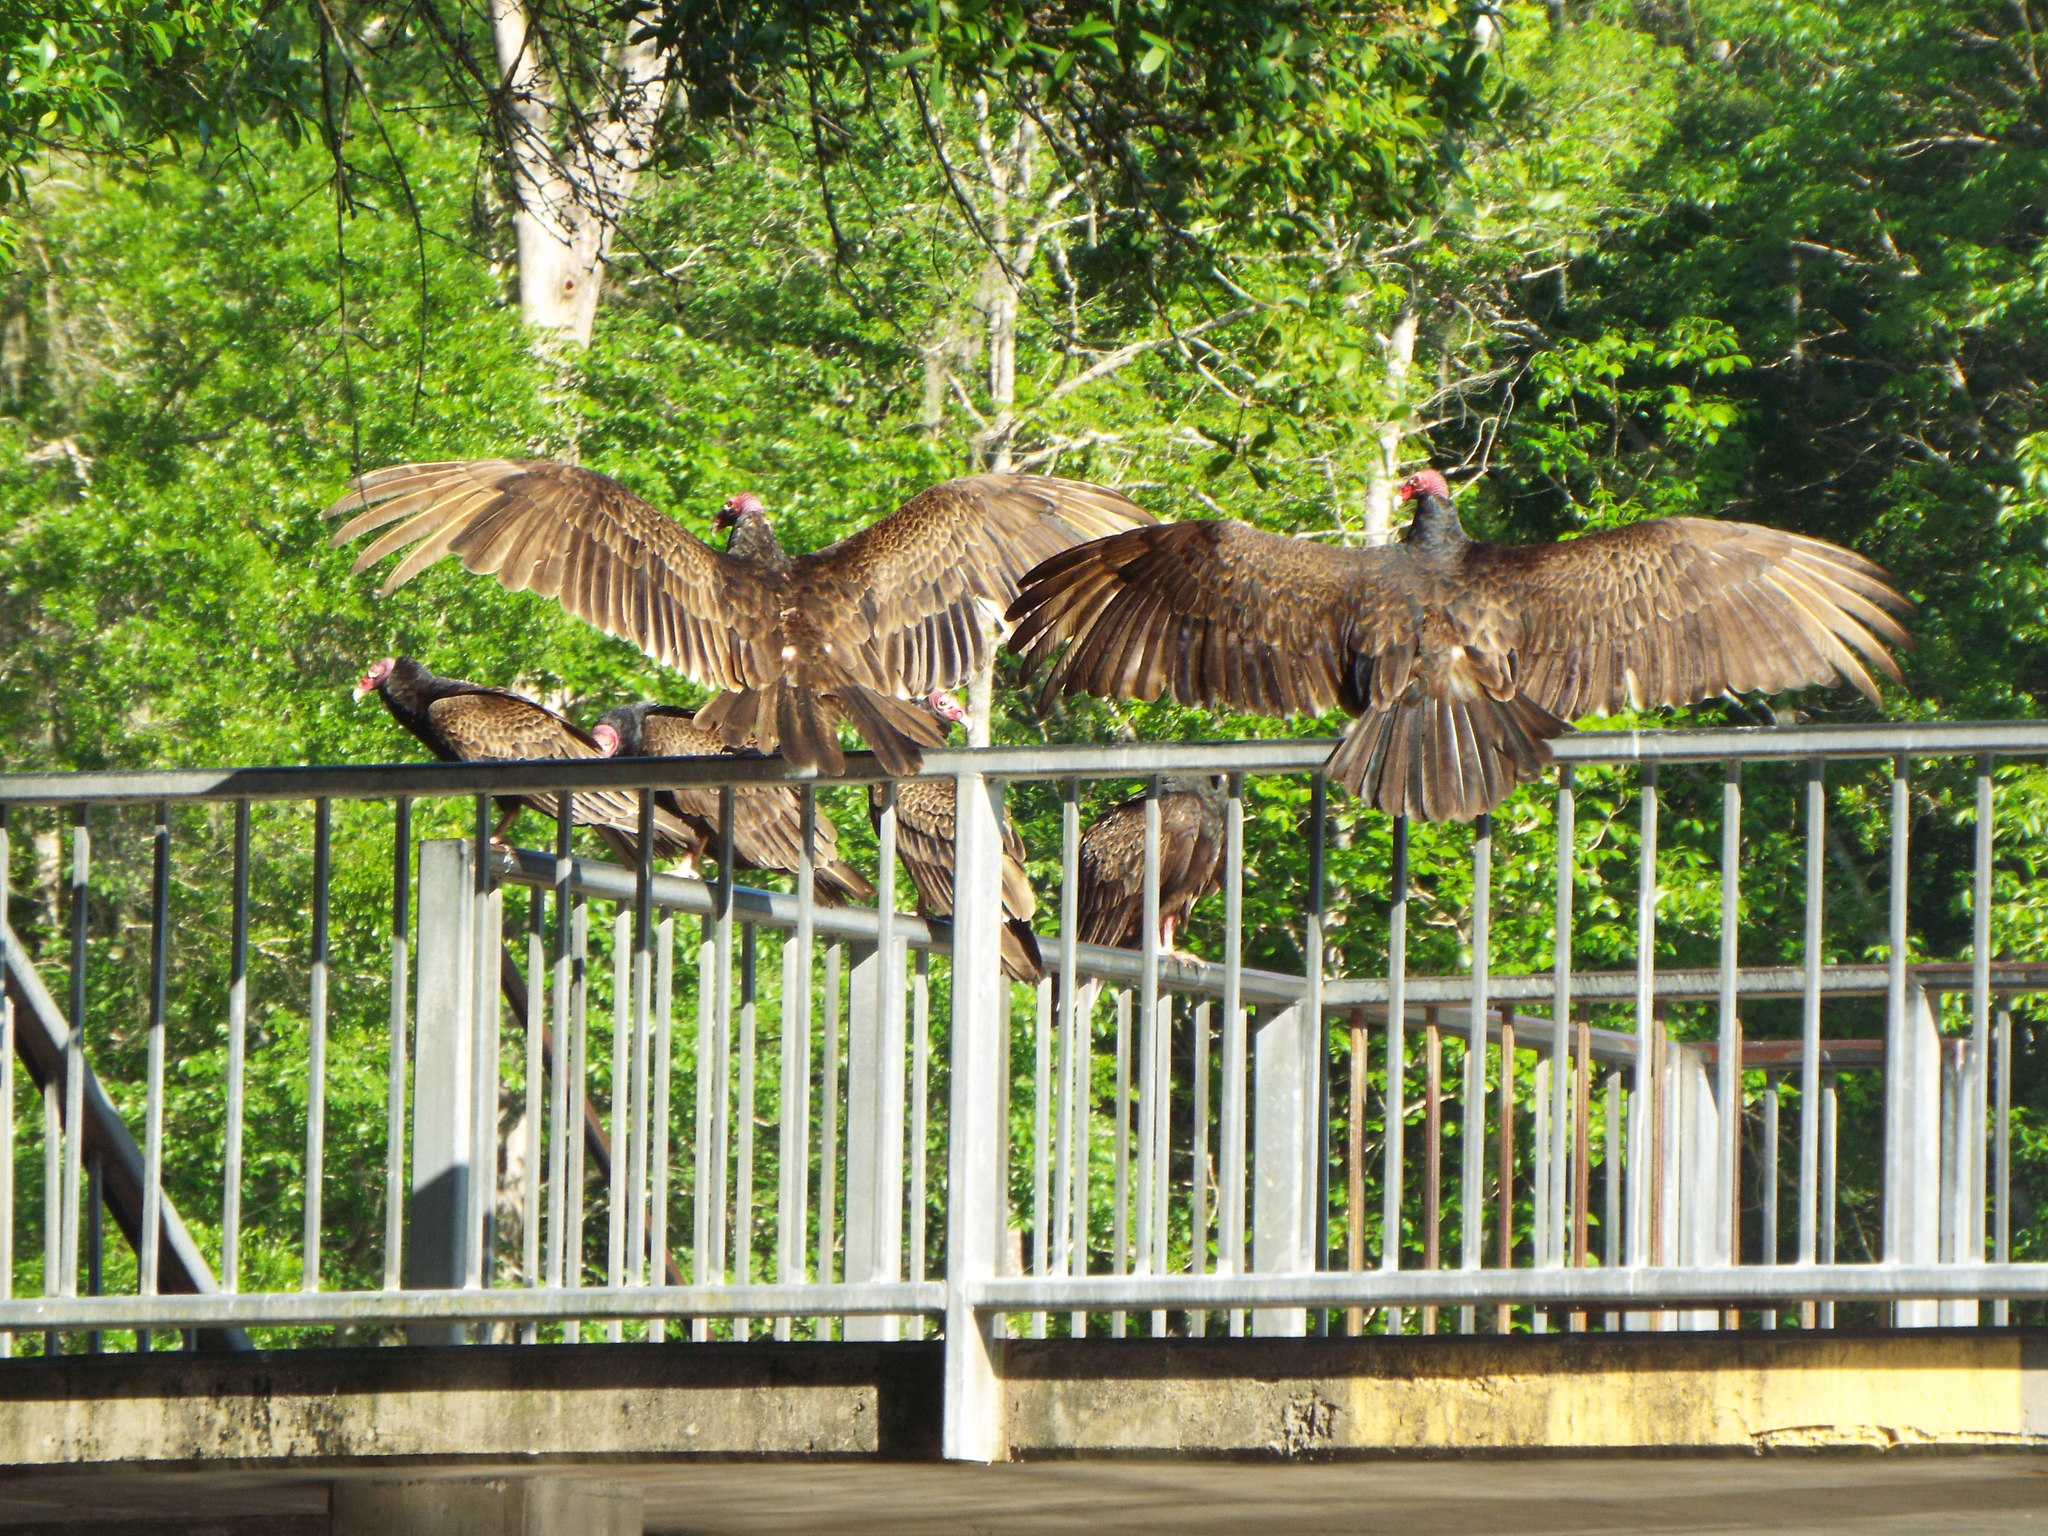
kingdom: Animalia
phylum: Chordata
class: Aves
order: Accipitriformes
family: Cathartidae
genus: Cathartes
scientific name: Cathartes aura
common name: Turkey vulture
